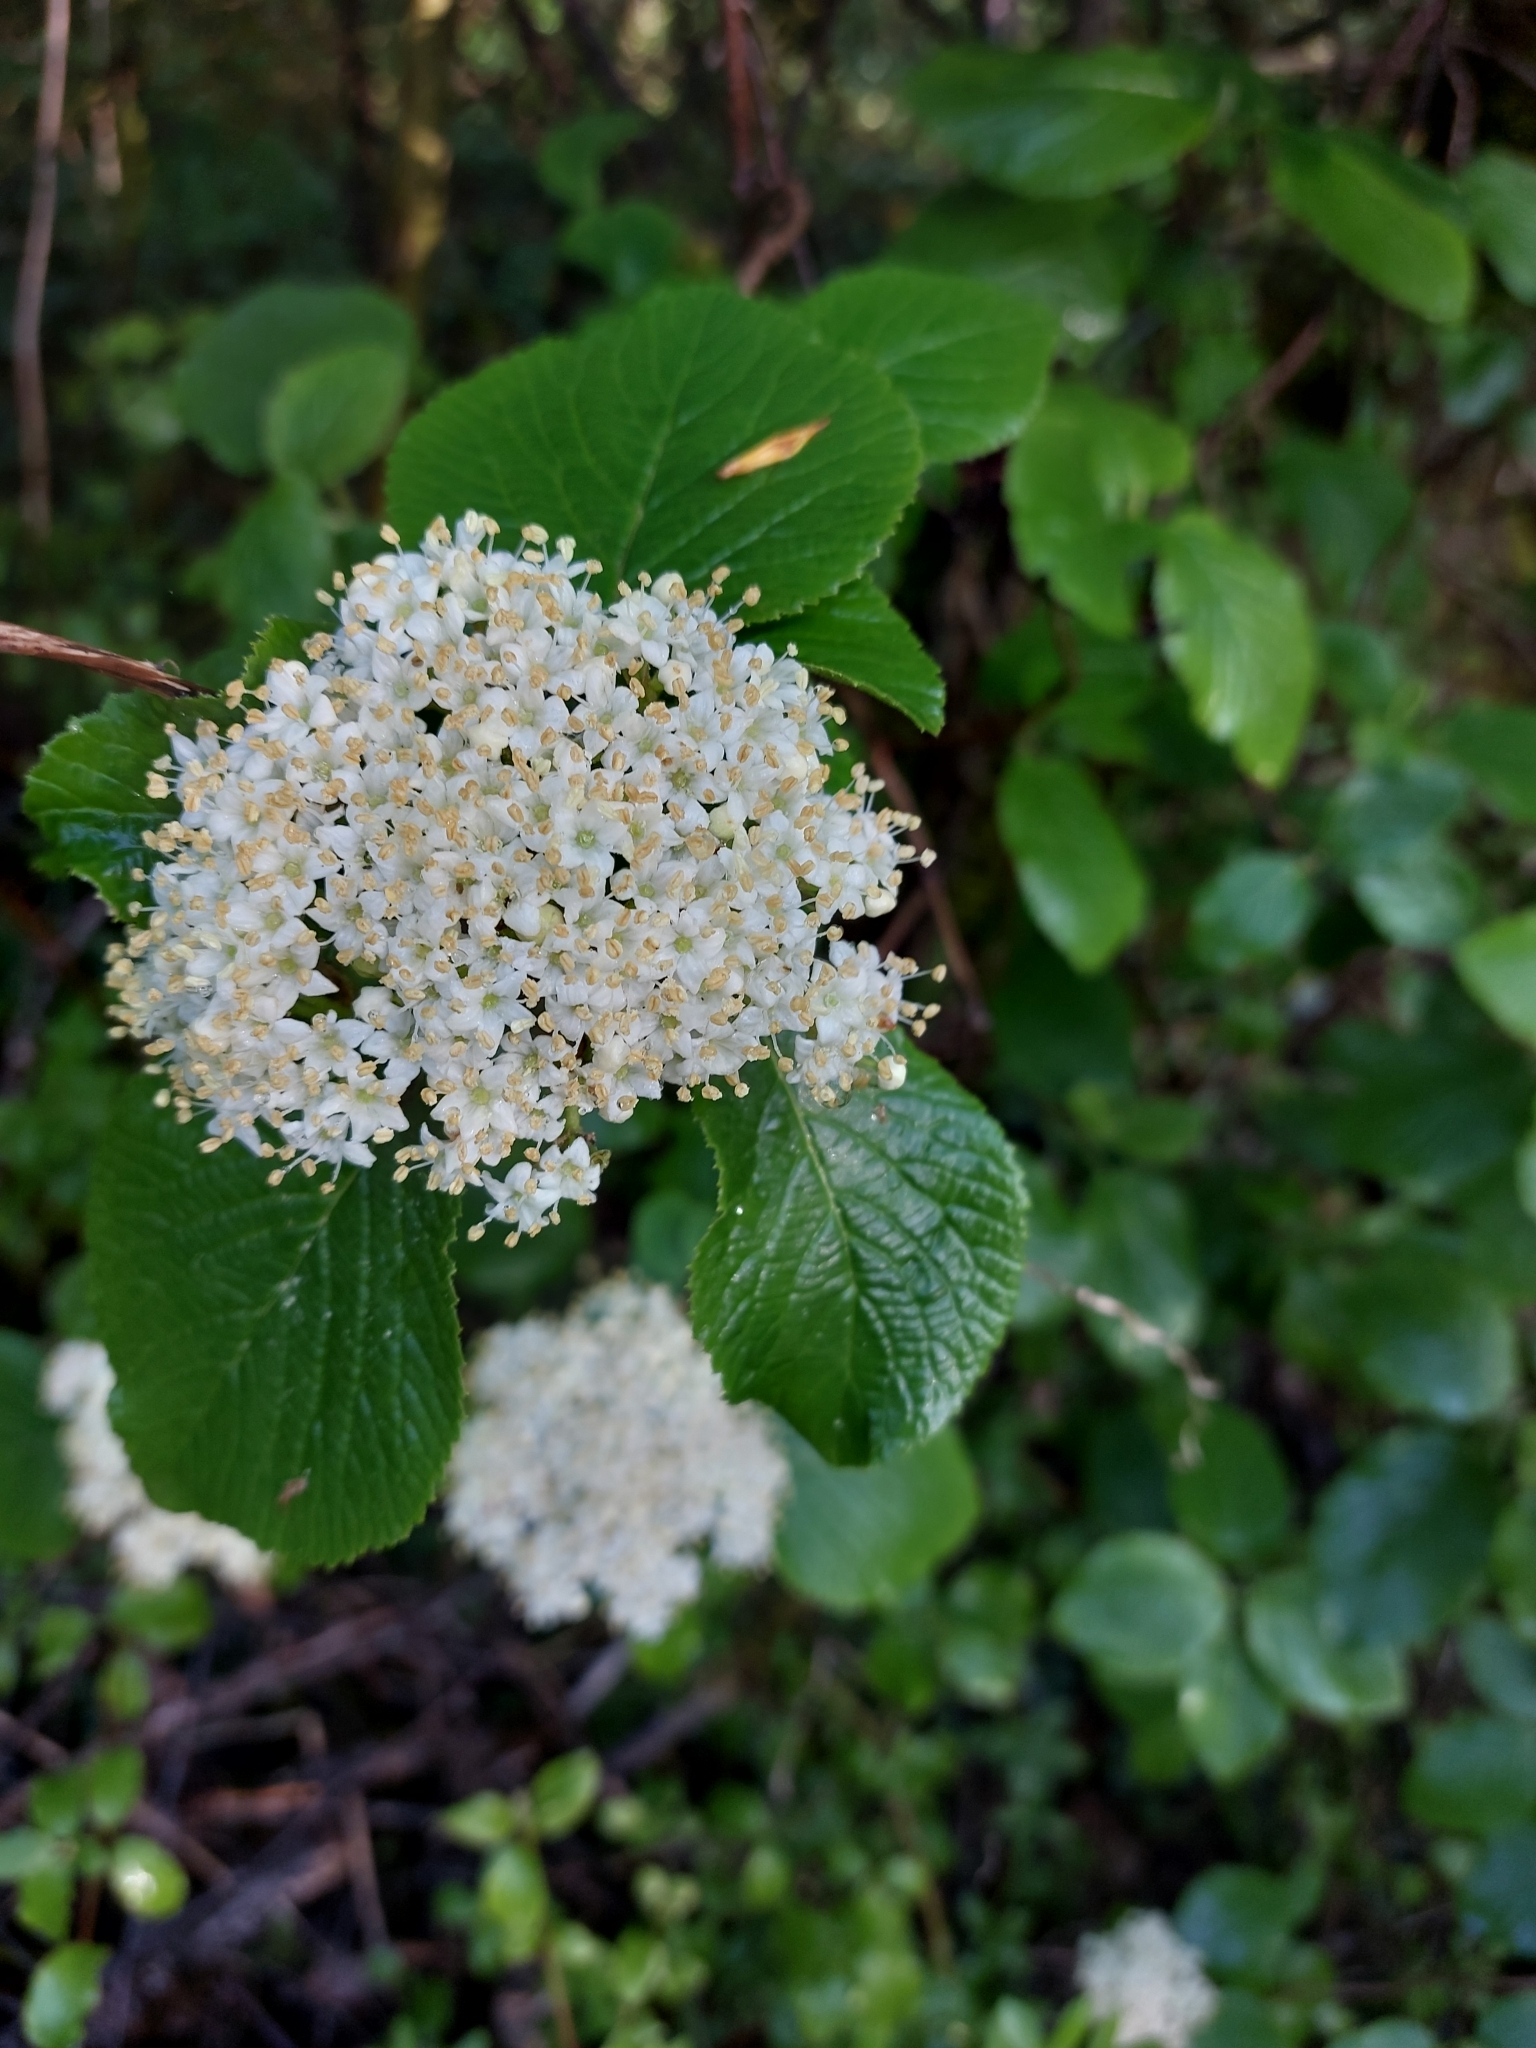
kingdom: Plantae
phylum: Tracheophyta
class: Magnoliopsida
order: Dipsacales
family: Viburnaceae
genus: Viburnum
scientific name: Viburnum lantana
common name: Wayfaring tree
